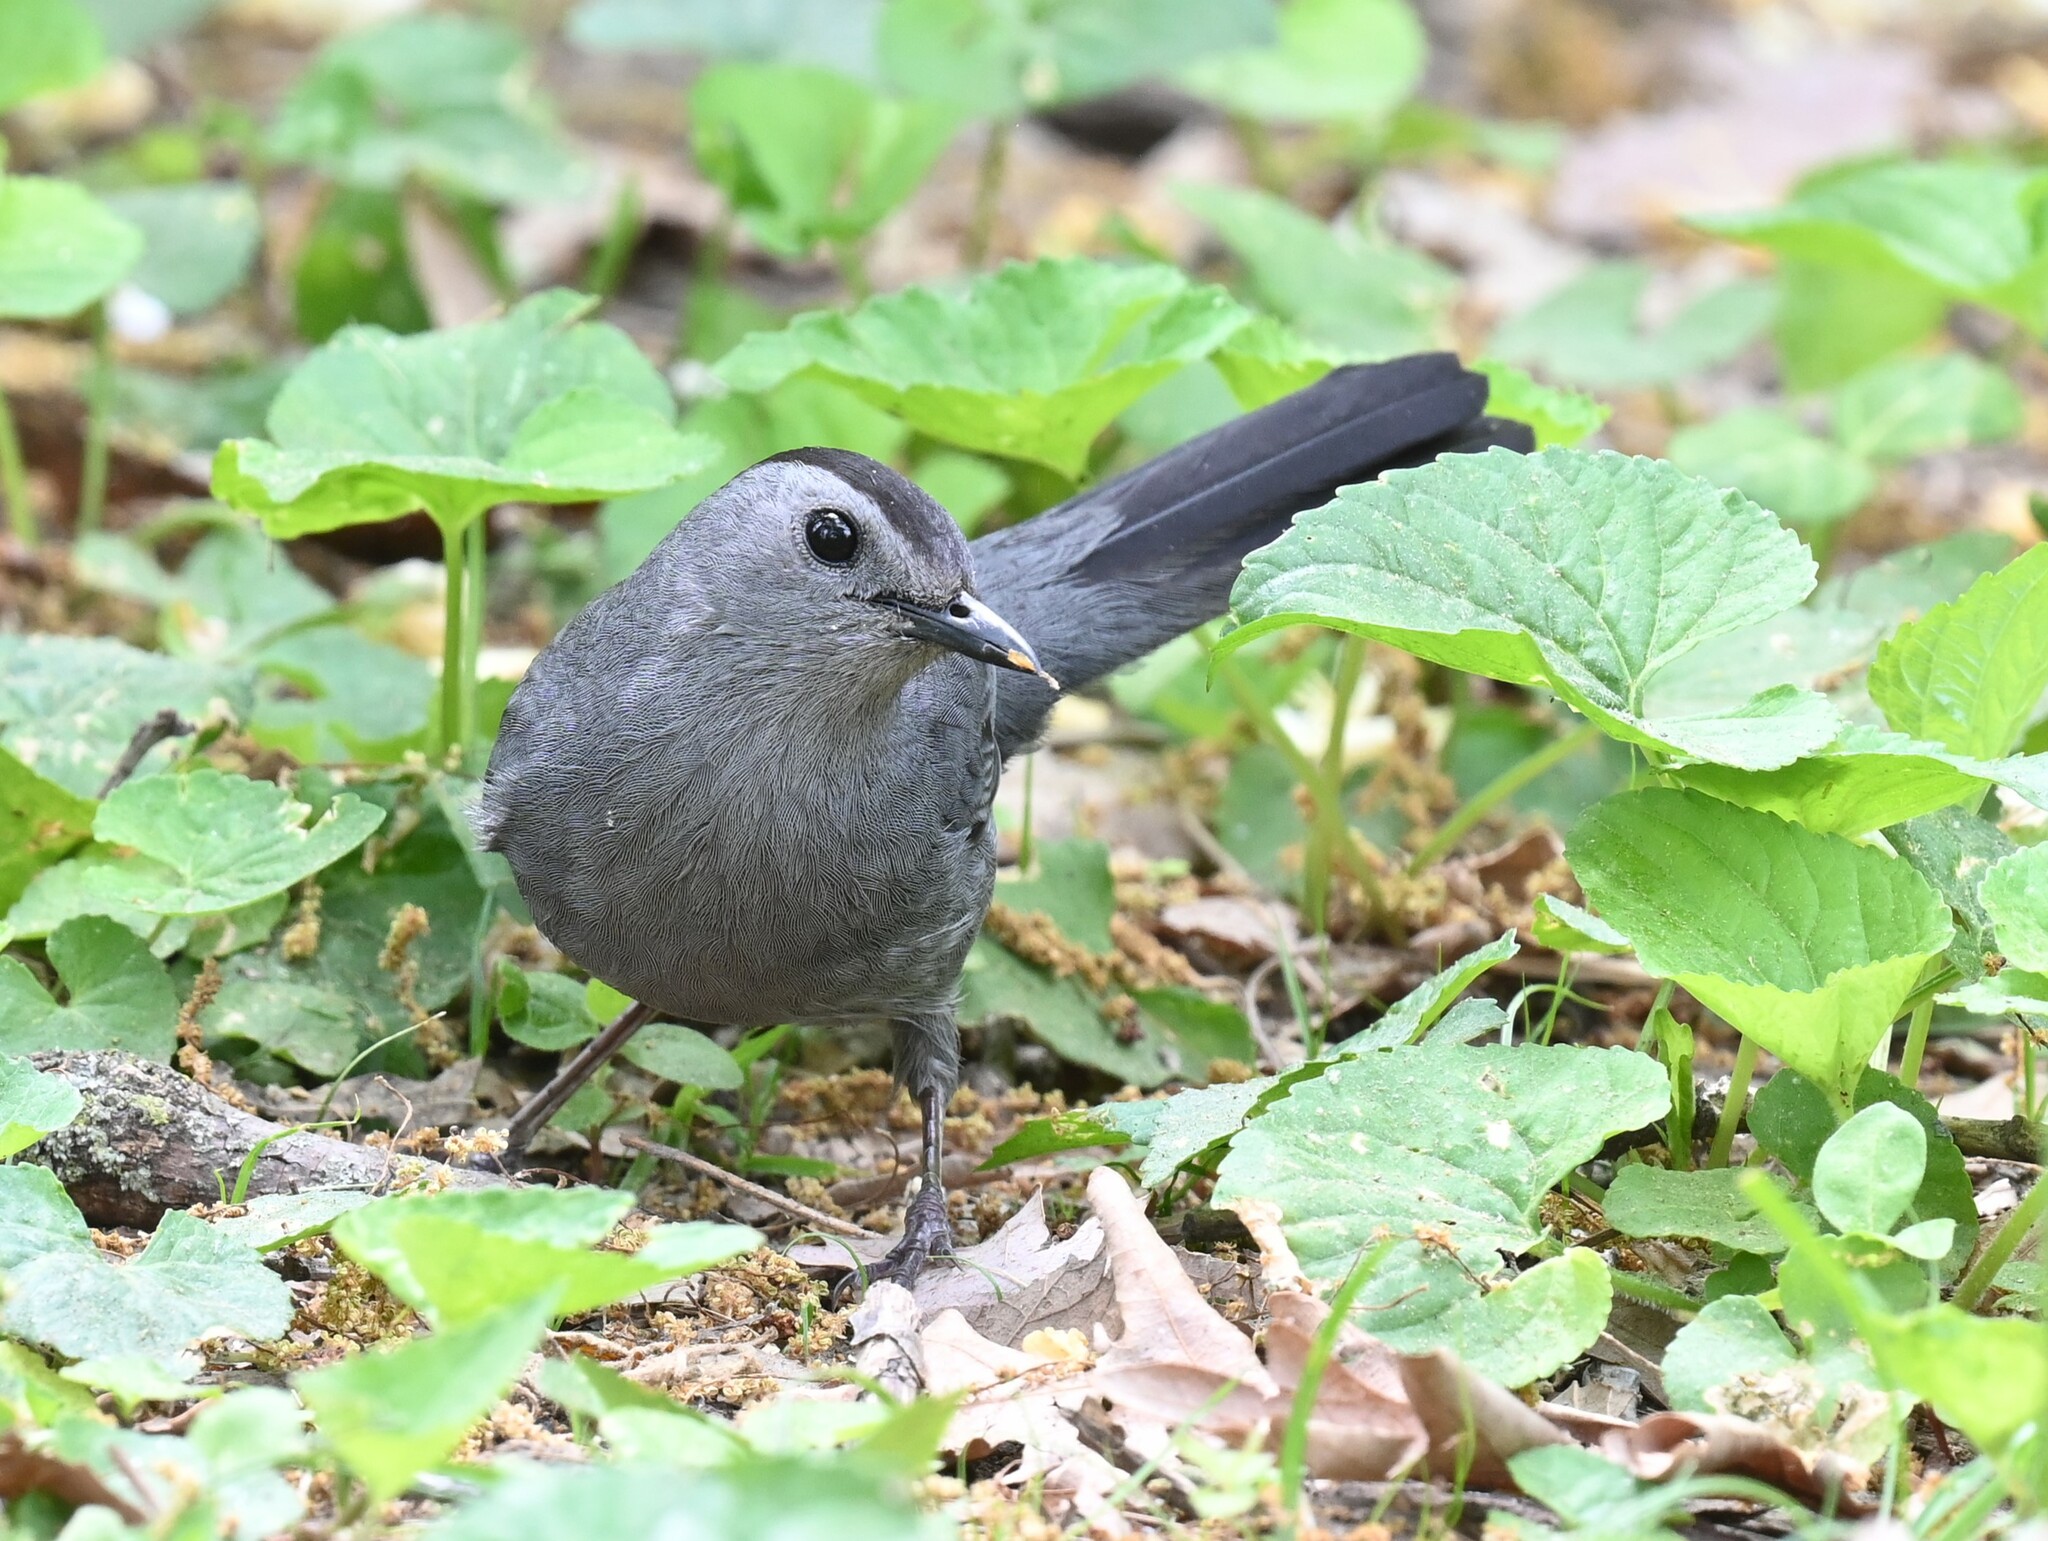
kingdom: Animalia
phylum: Chordata
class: Aves
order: Passeriformes
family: Mimidae
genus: Dumetella
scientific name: Dumetella carolinensis
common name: Gray catbird
